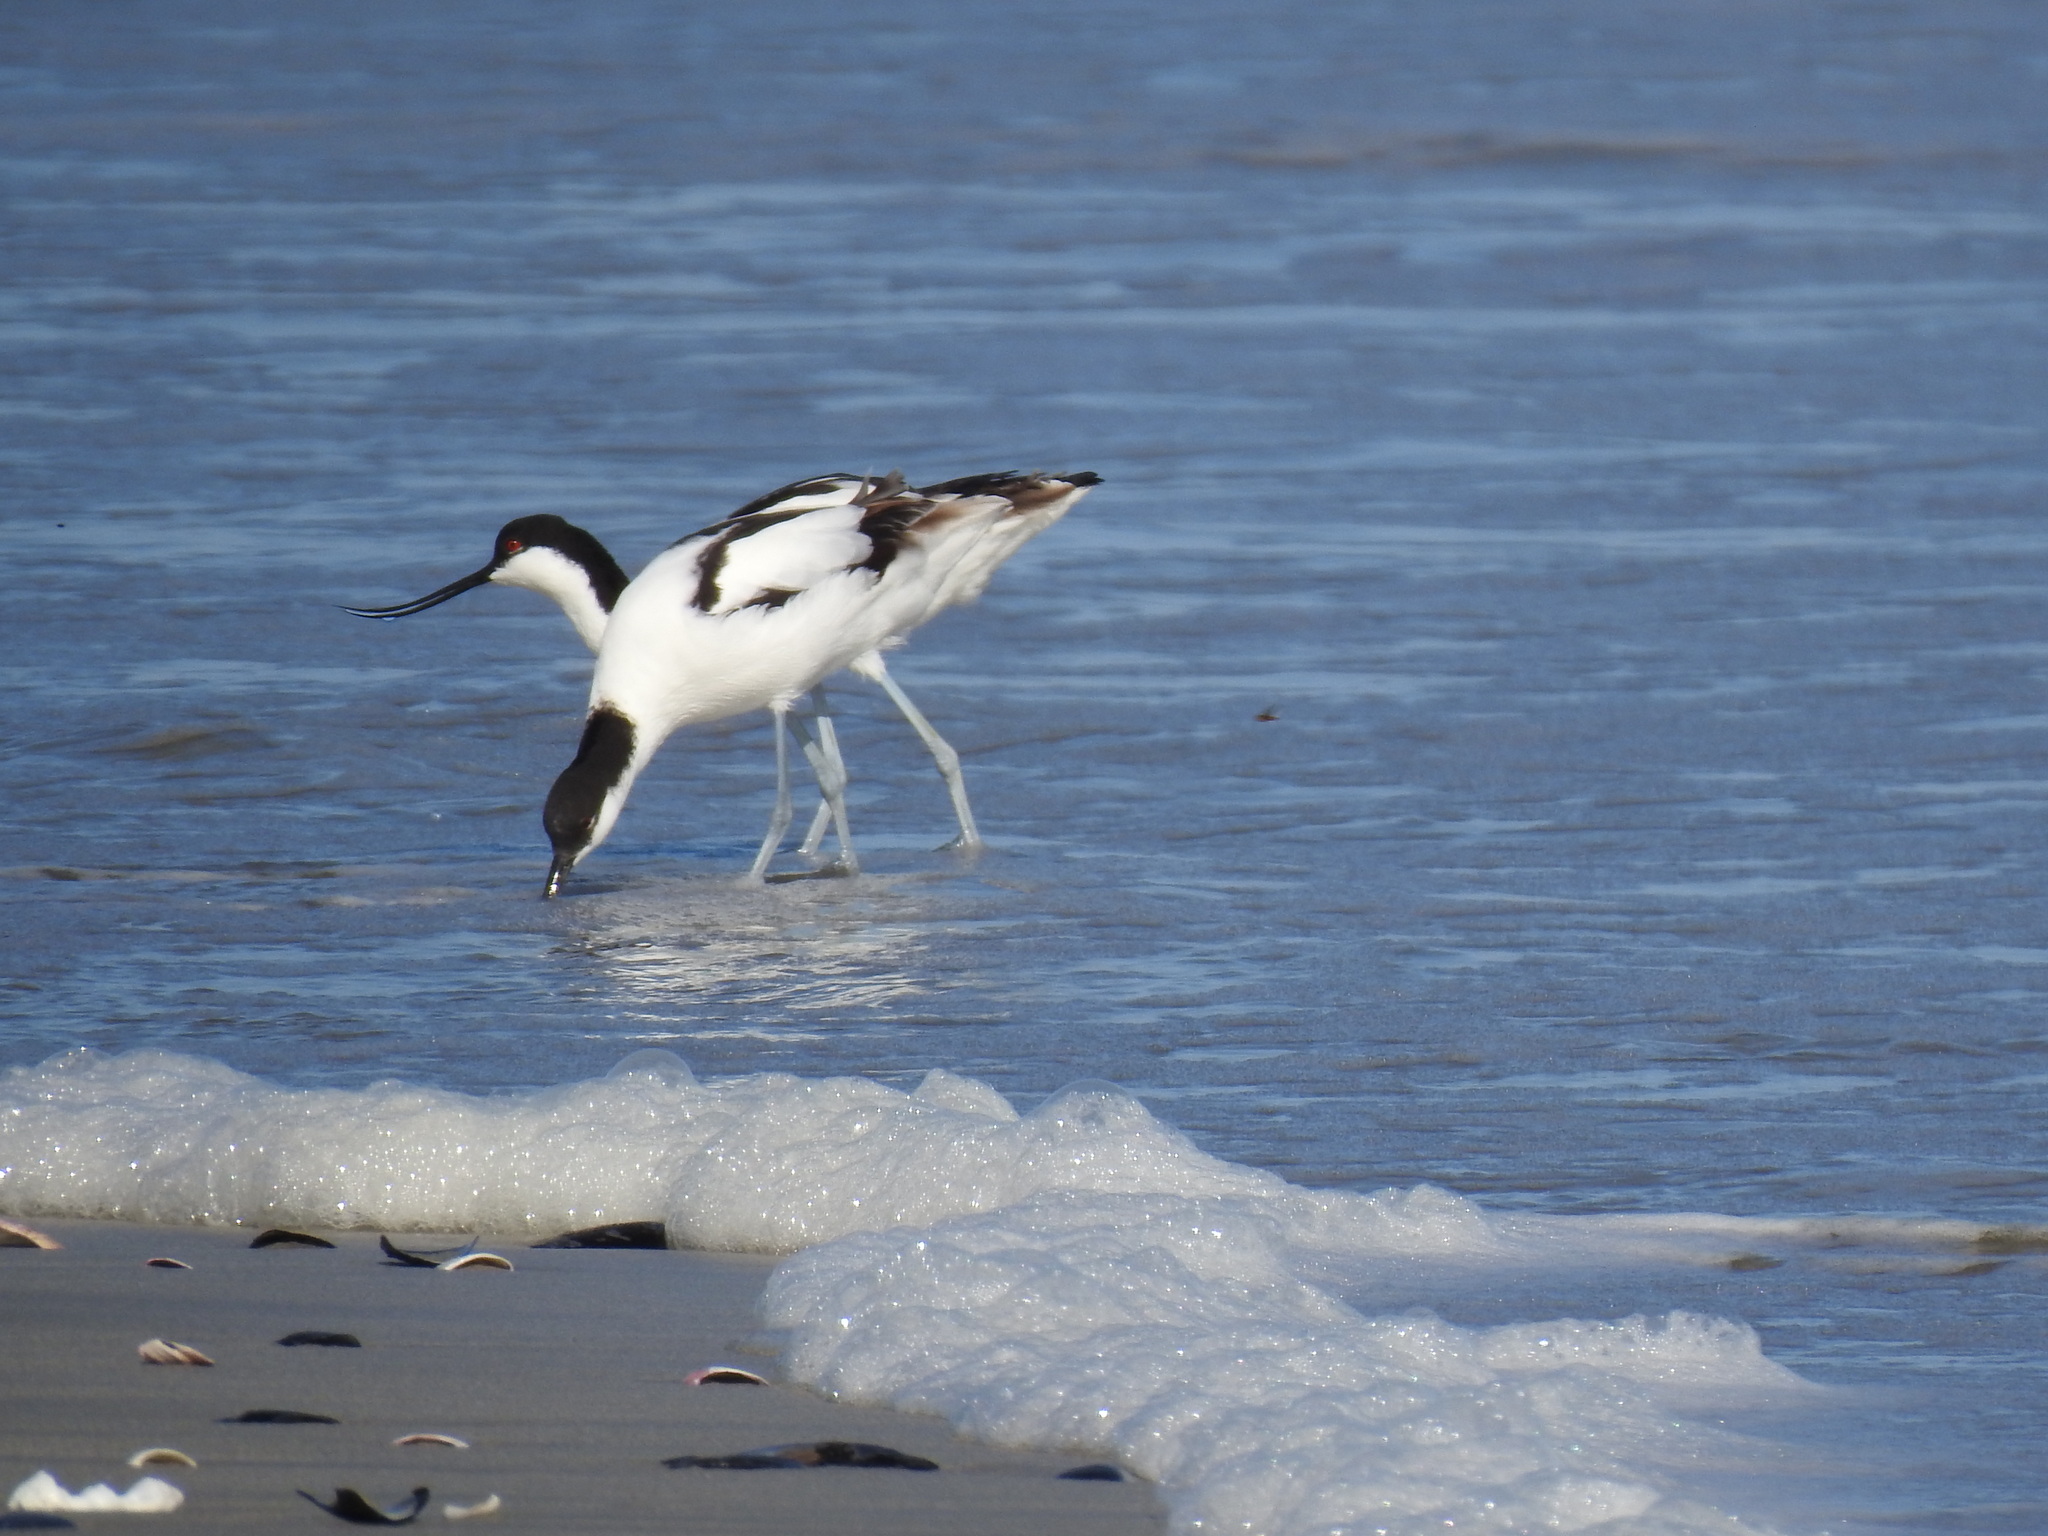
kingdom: Animalia
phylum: Chordata
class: Aves
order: Charadriiformes
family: Recurvirostridae
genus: Recurvirostra
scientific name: Recurvirostra avosetta
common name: Pied avocet
